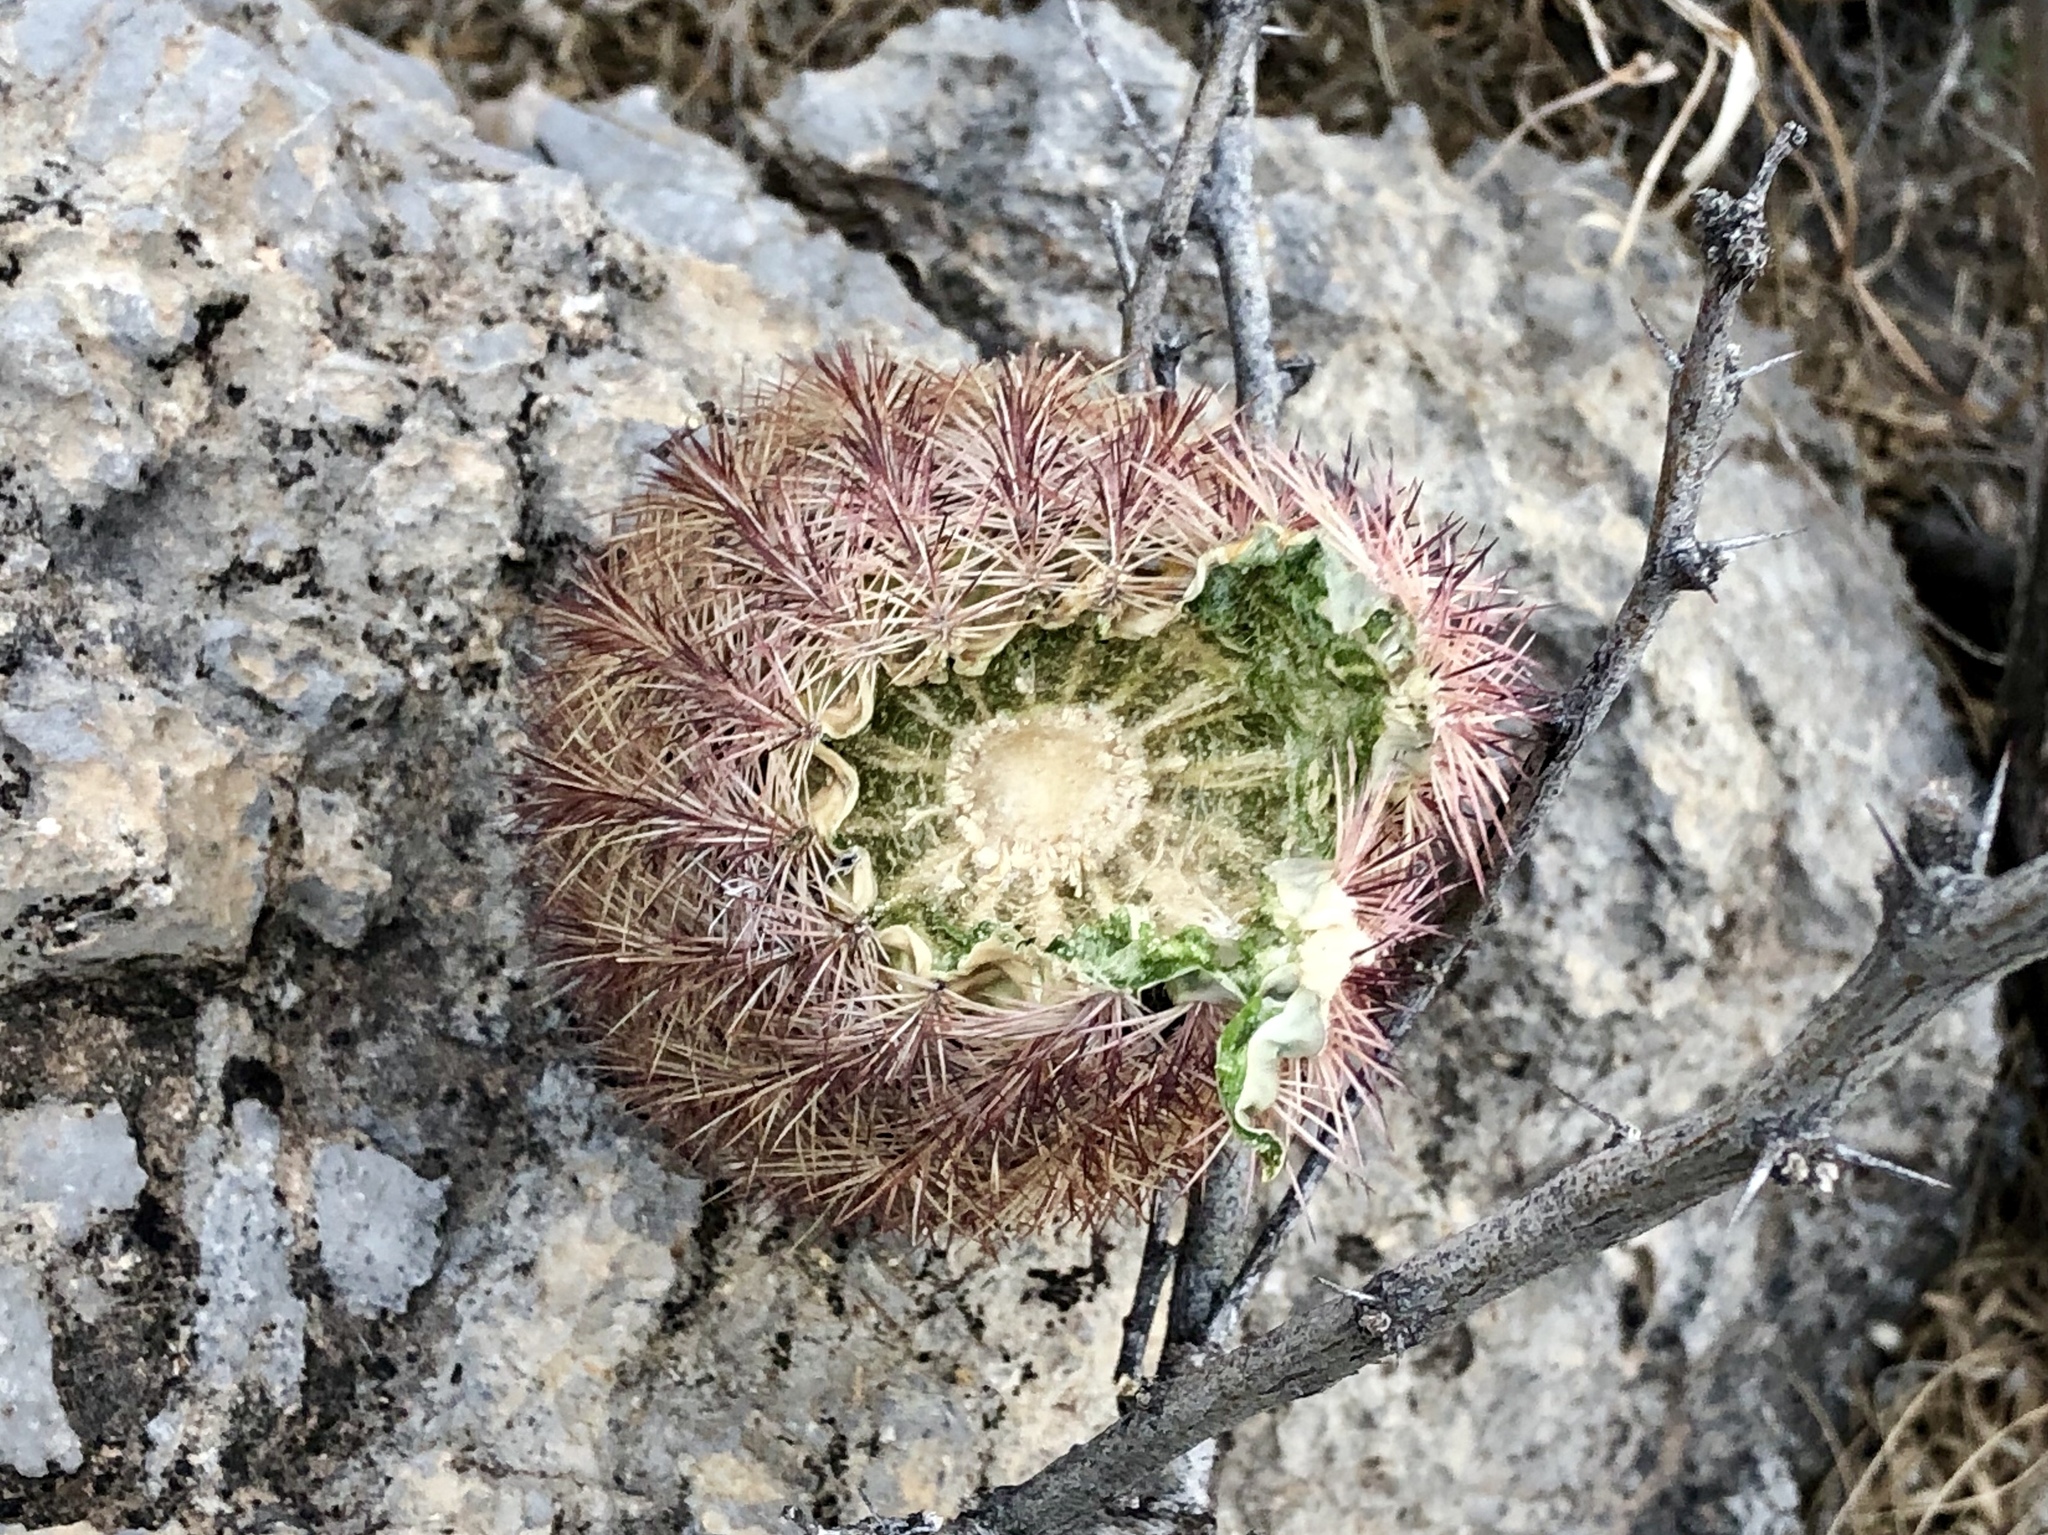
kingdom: Plantae
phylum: Tracheophyta
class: Magnoliopsida
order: Caryophyllales
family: Cactaceae
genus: Echinocereus
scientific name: Echinocereus dasyacanthus
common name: Spiny hedgehog cactus
